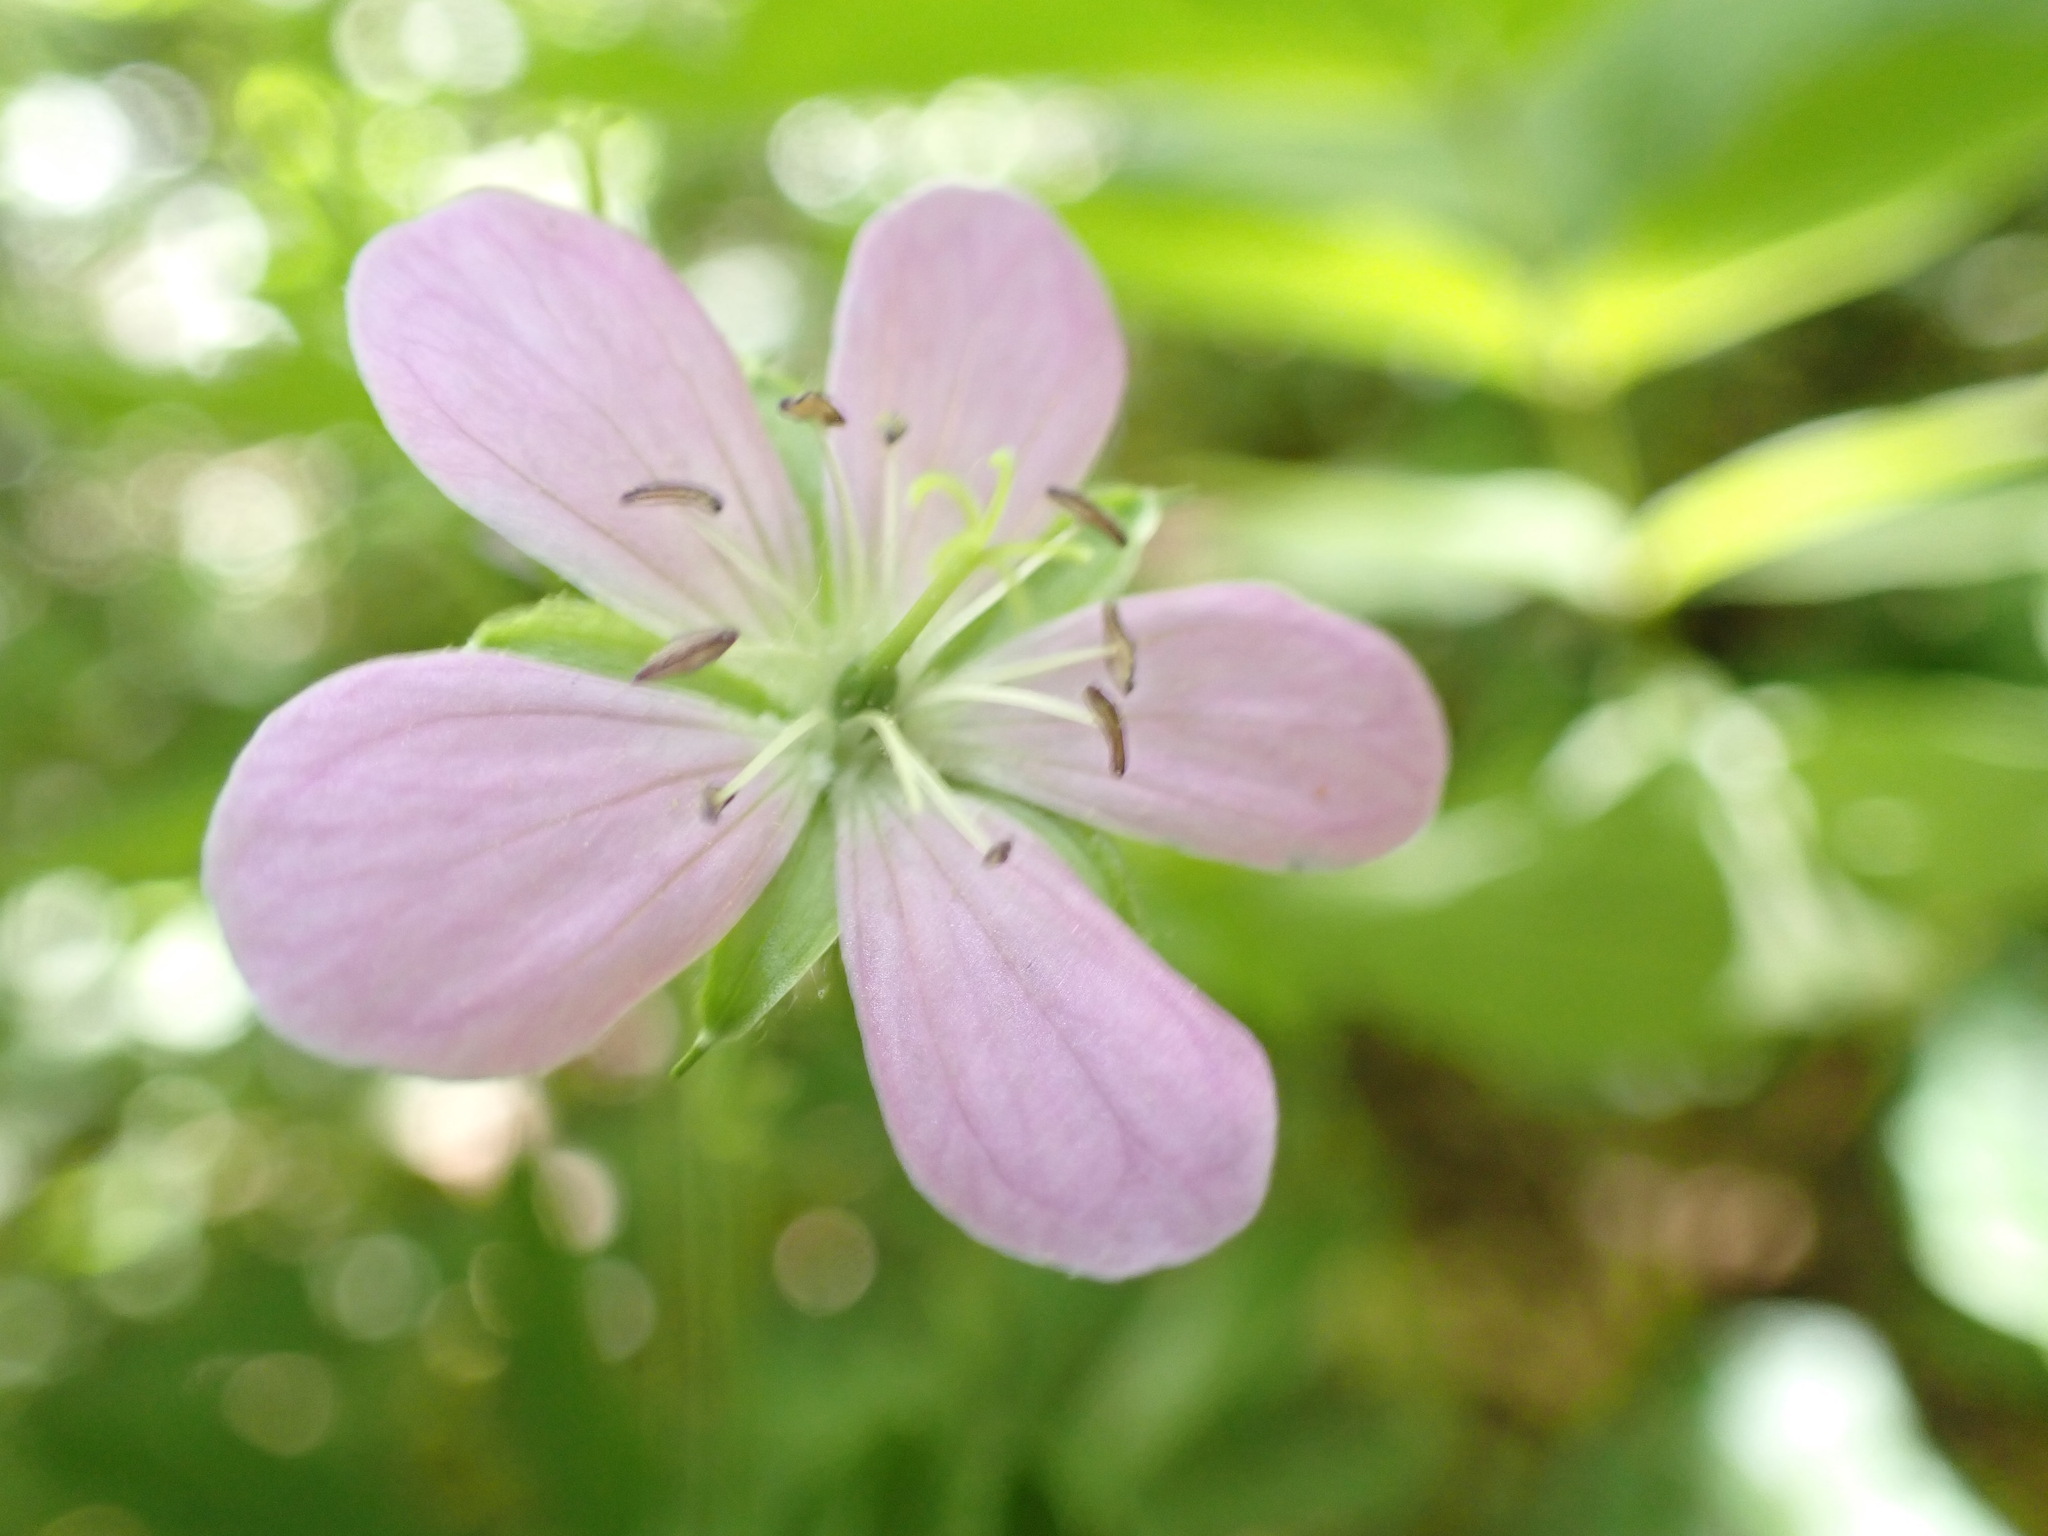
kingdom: Plantae
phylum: Tracheophyta
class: Magnoliopsida
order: Geraniales
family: Geraniaceae
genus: Geranium
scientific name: Geranium maculatum
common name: Spotted geranium
